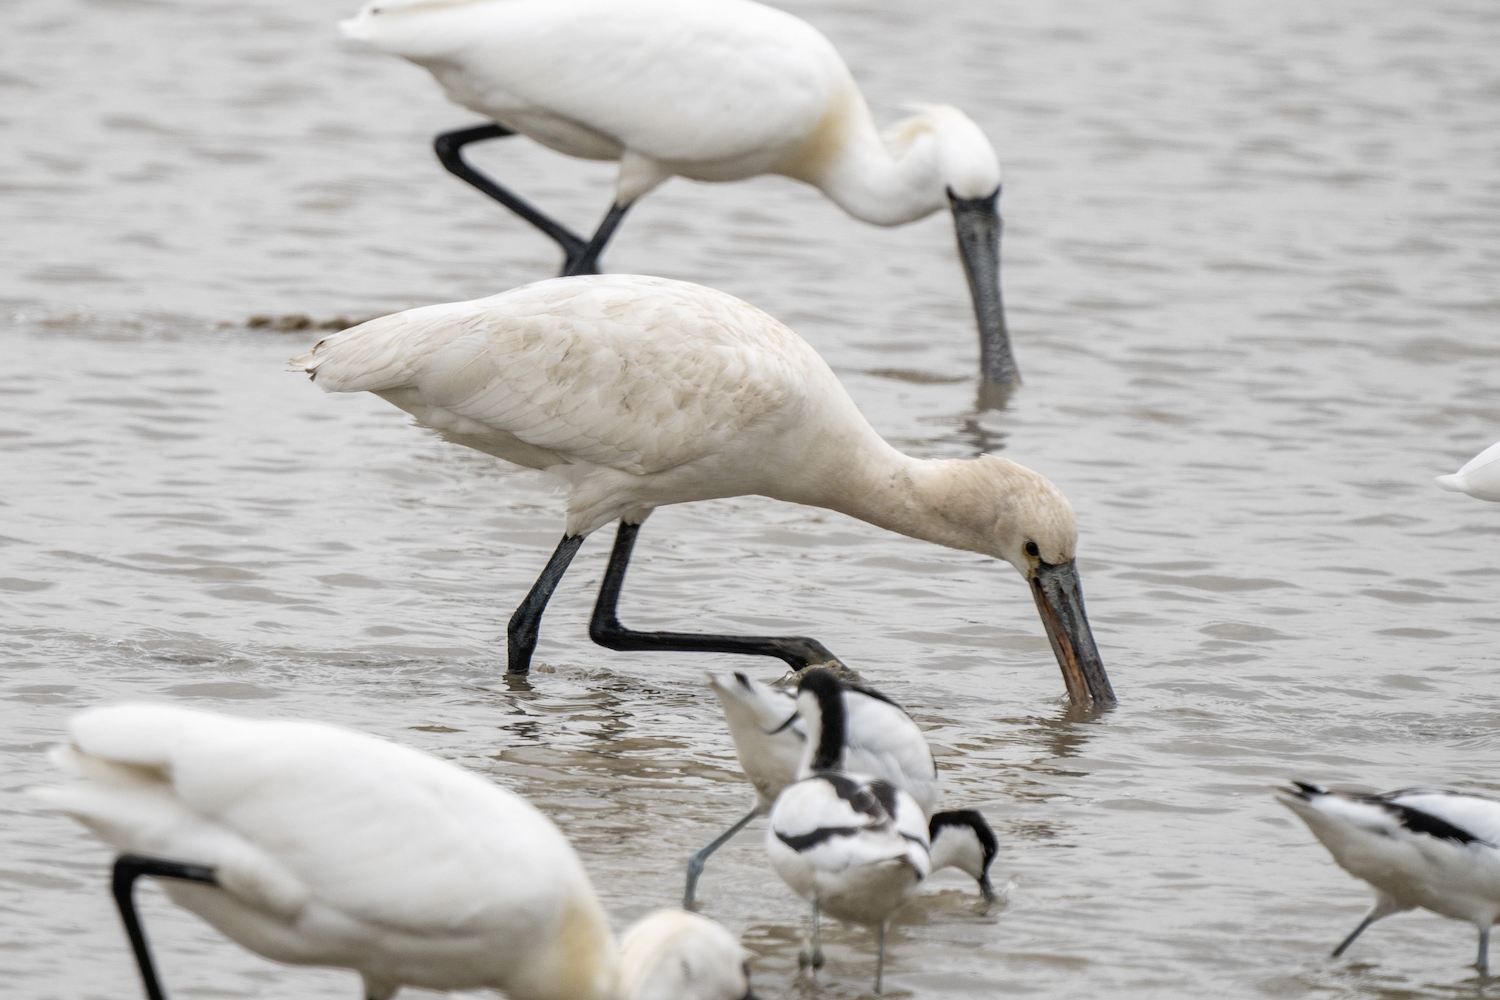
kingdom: Animalia
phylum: Chordata
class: Aves
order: Pelecaniformes
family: Threskiornithidae
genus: Platalea
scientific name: Platalea leucorodia
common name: Eurasian spoonbill
